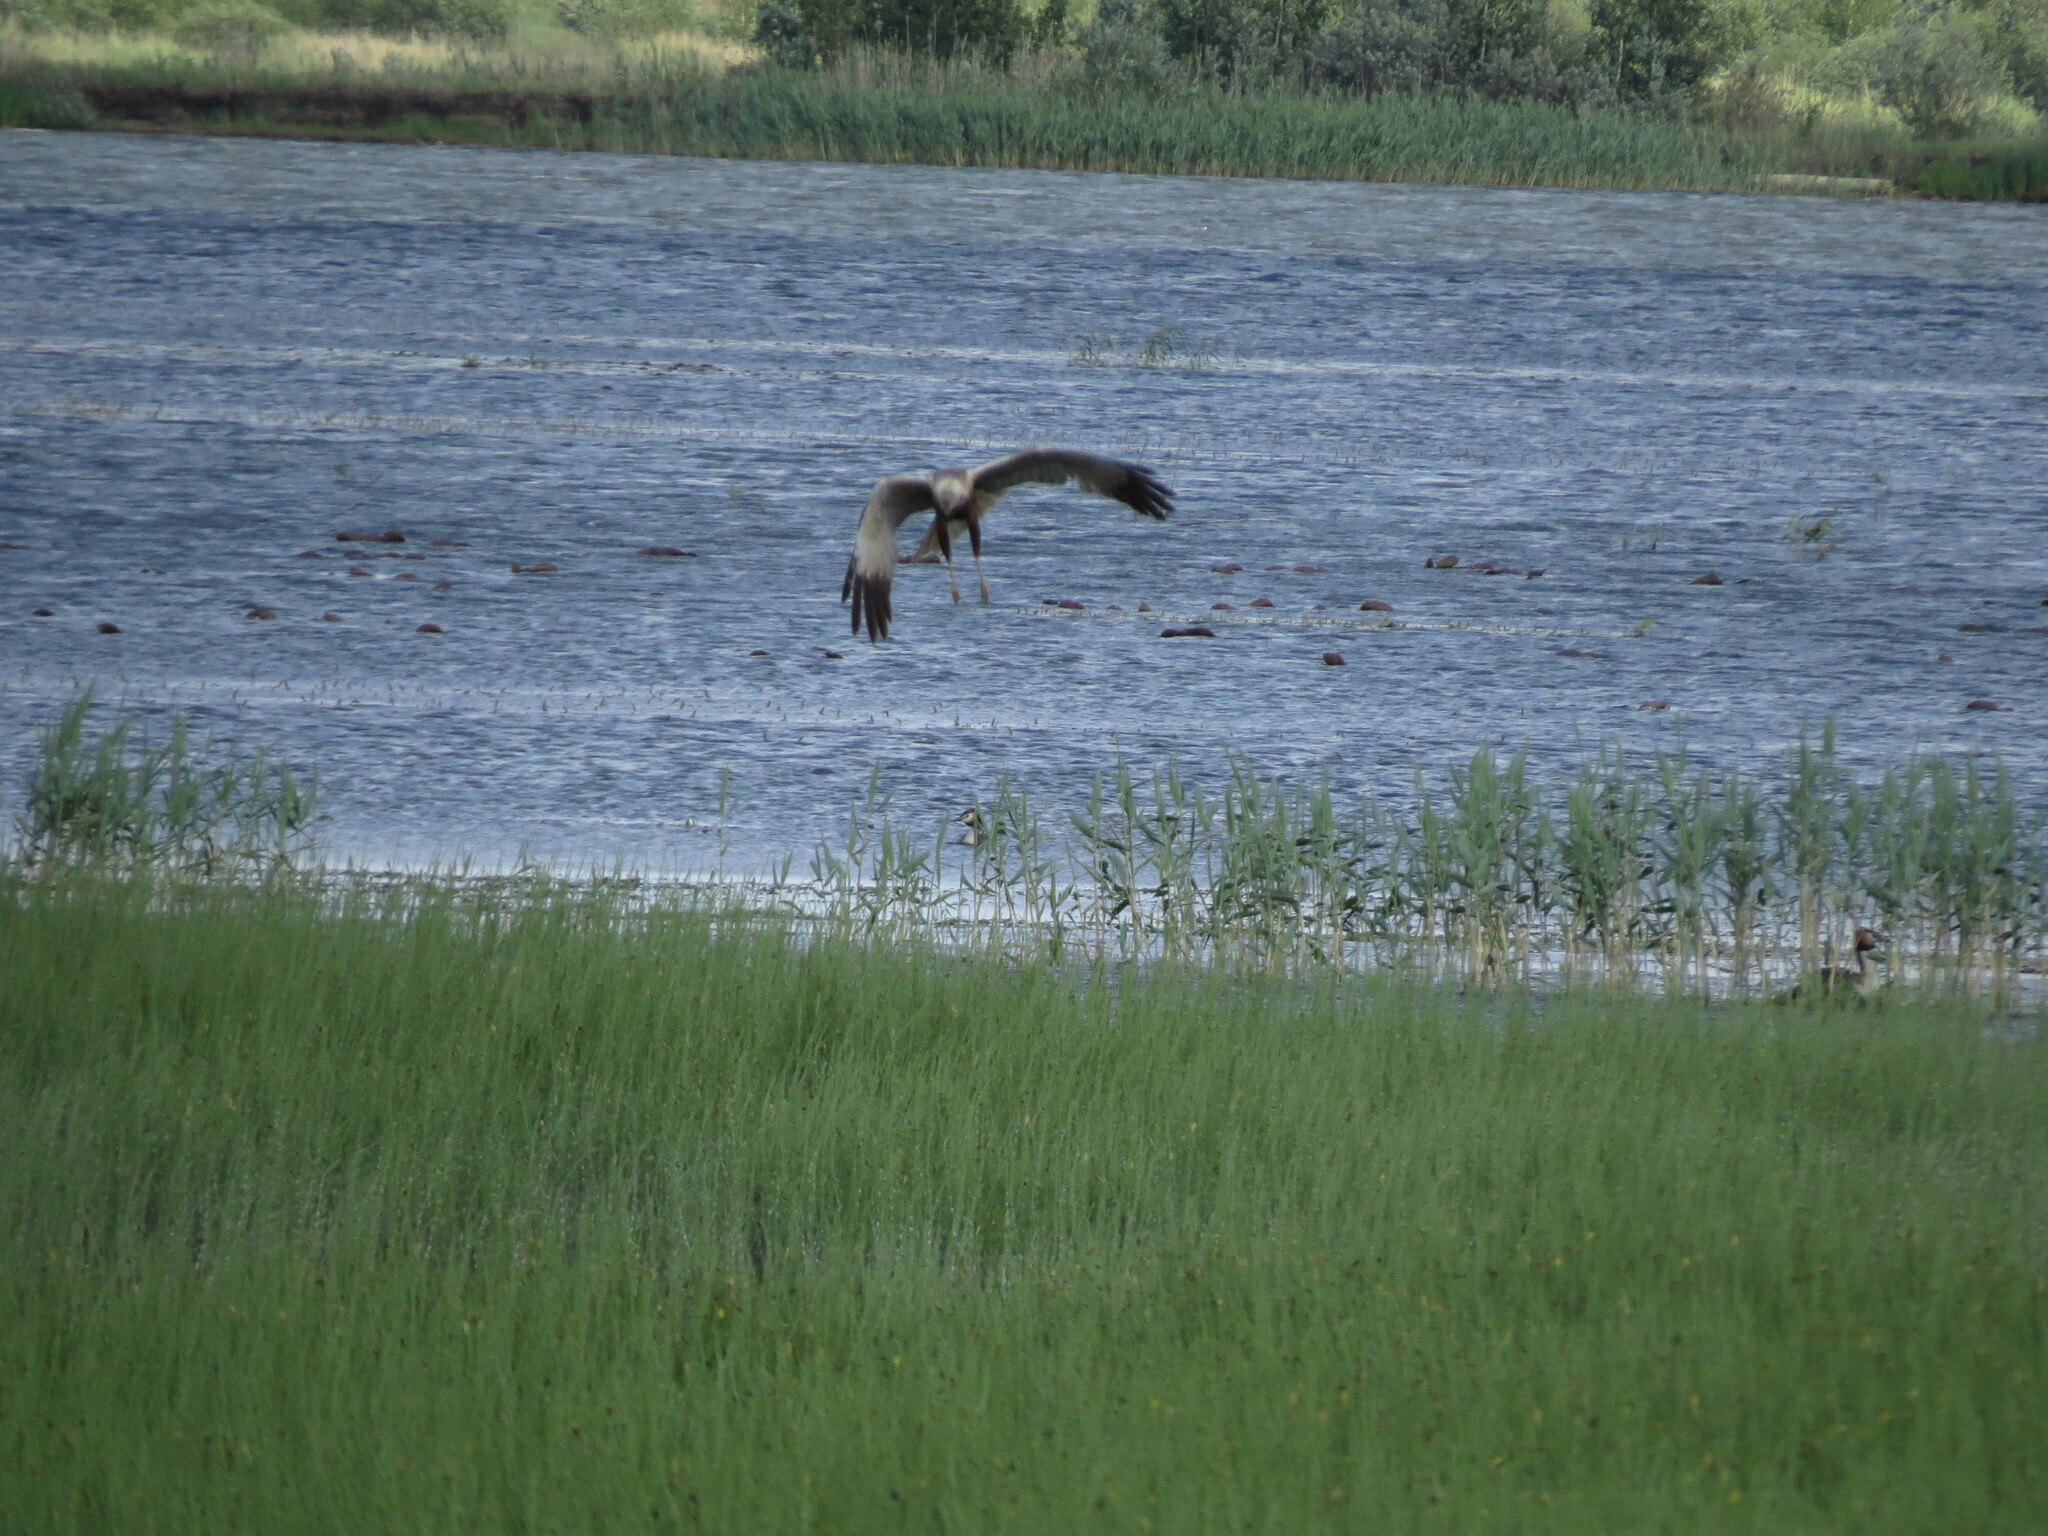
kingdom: Animalia
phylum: Chordata
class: Aves
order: Accipitriformes
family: Accipitridae
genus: Circus
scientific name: Circus aeruginosus
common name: Western marsh harrier
